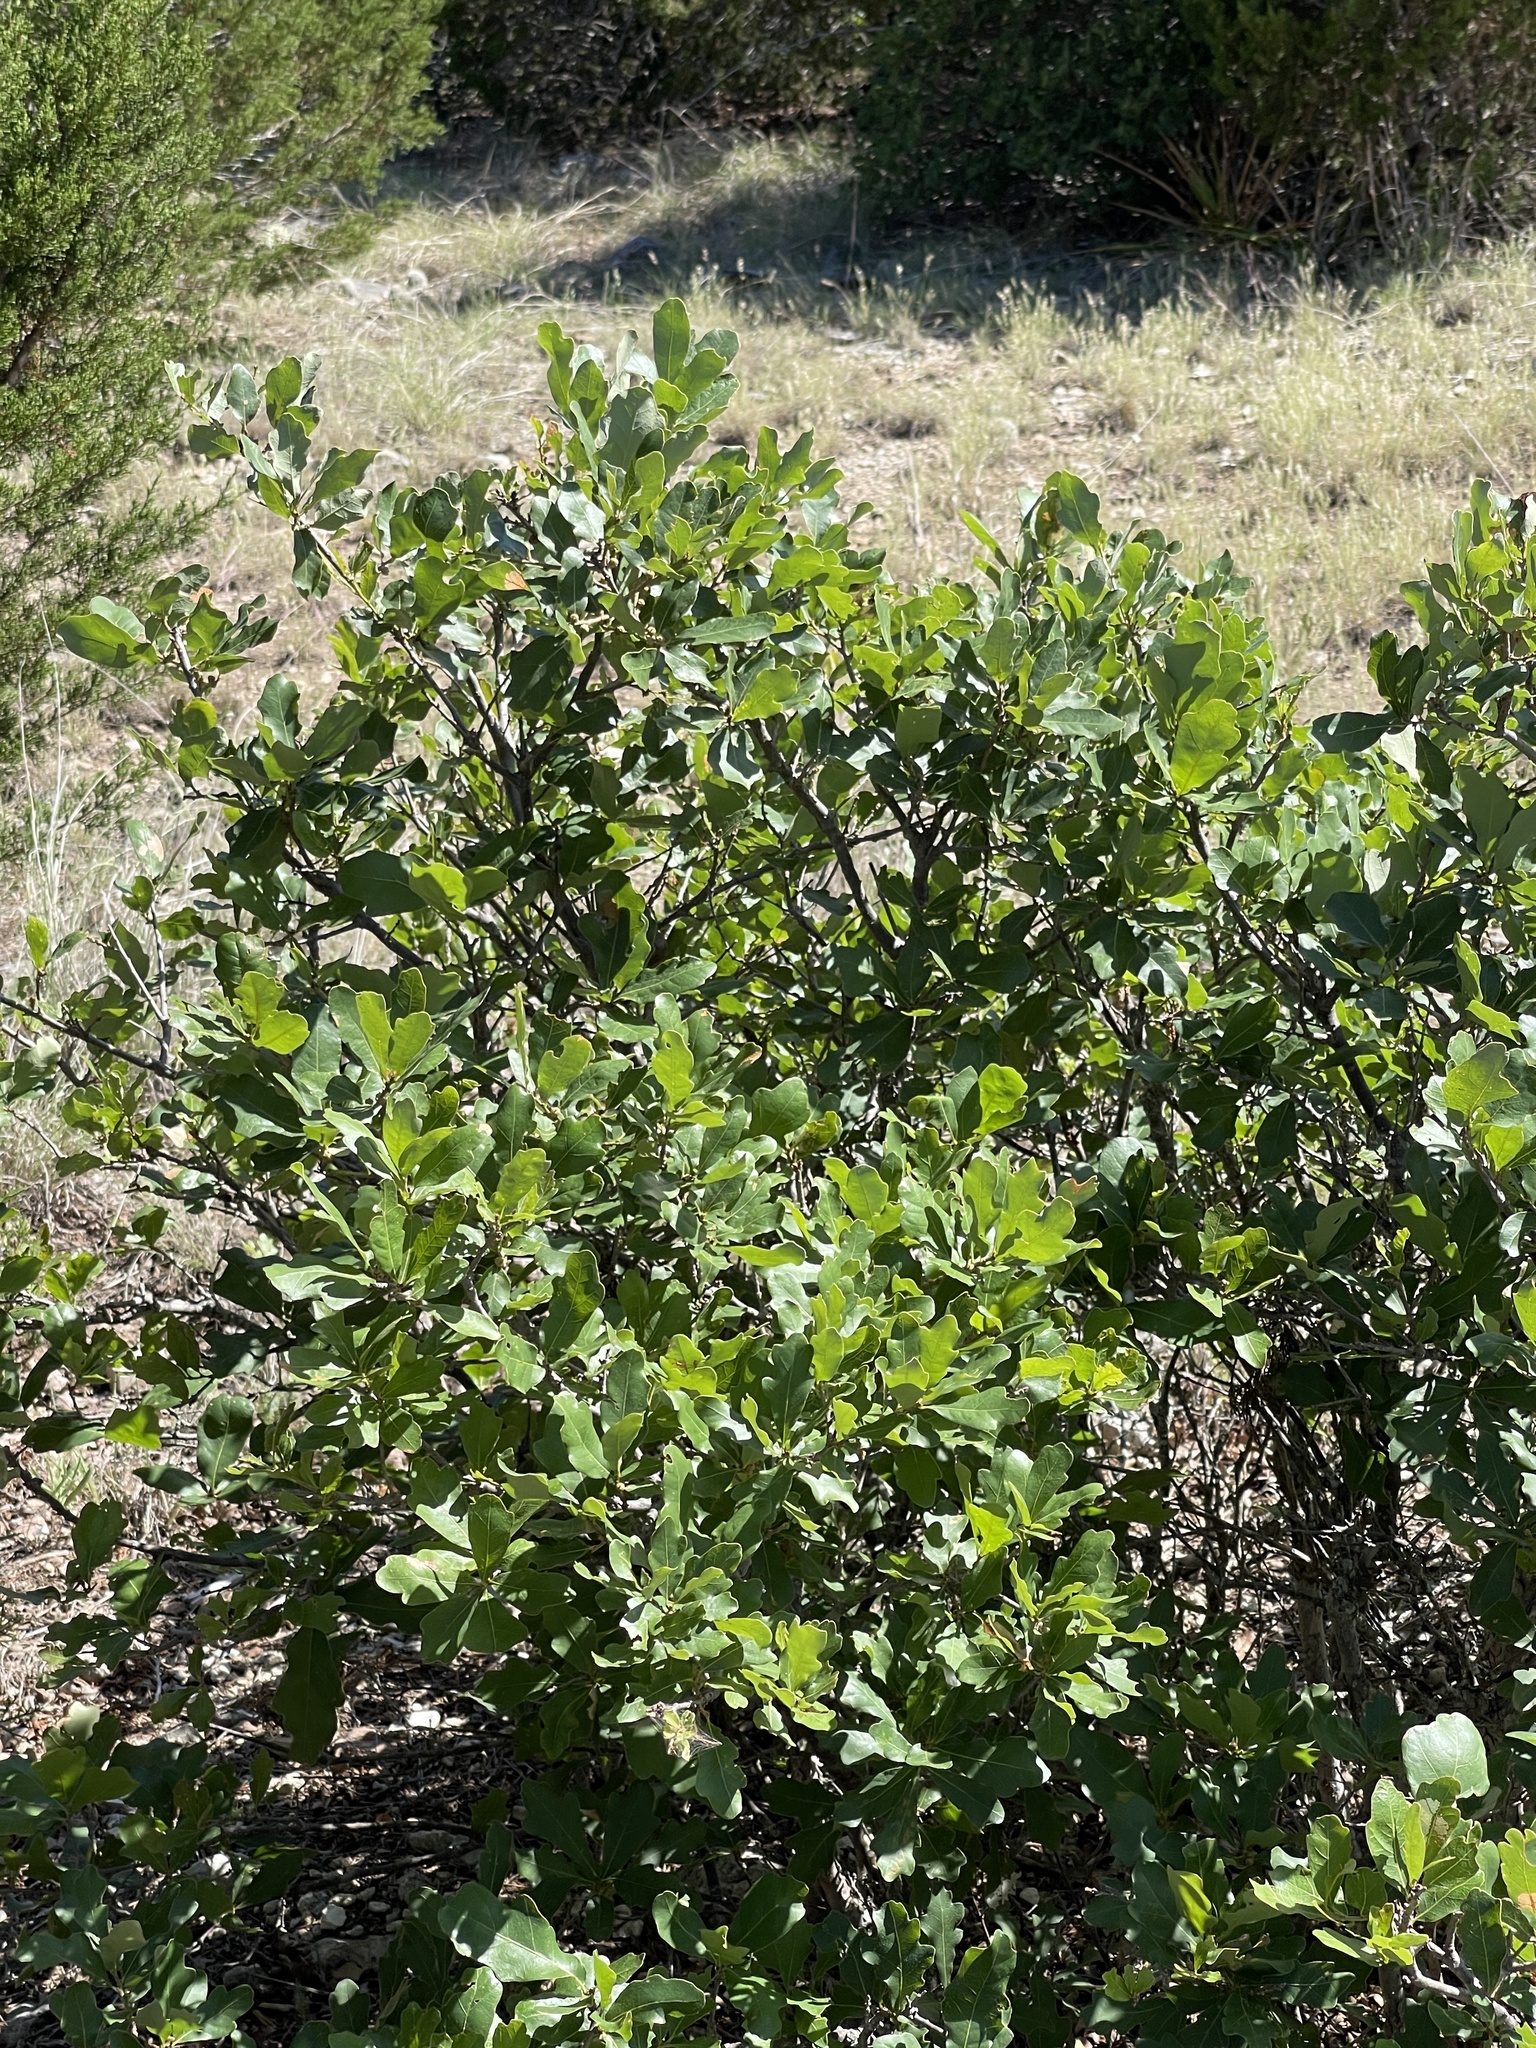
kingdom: Plantae
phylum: Tracheophyta
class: Magnoliopsida
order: Fagales
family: Fagaceae
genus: Quercus
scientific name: Quercus laceyi
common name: Lacey oak
